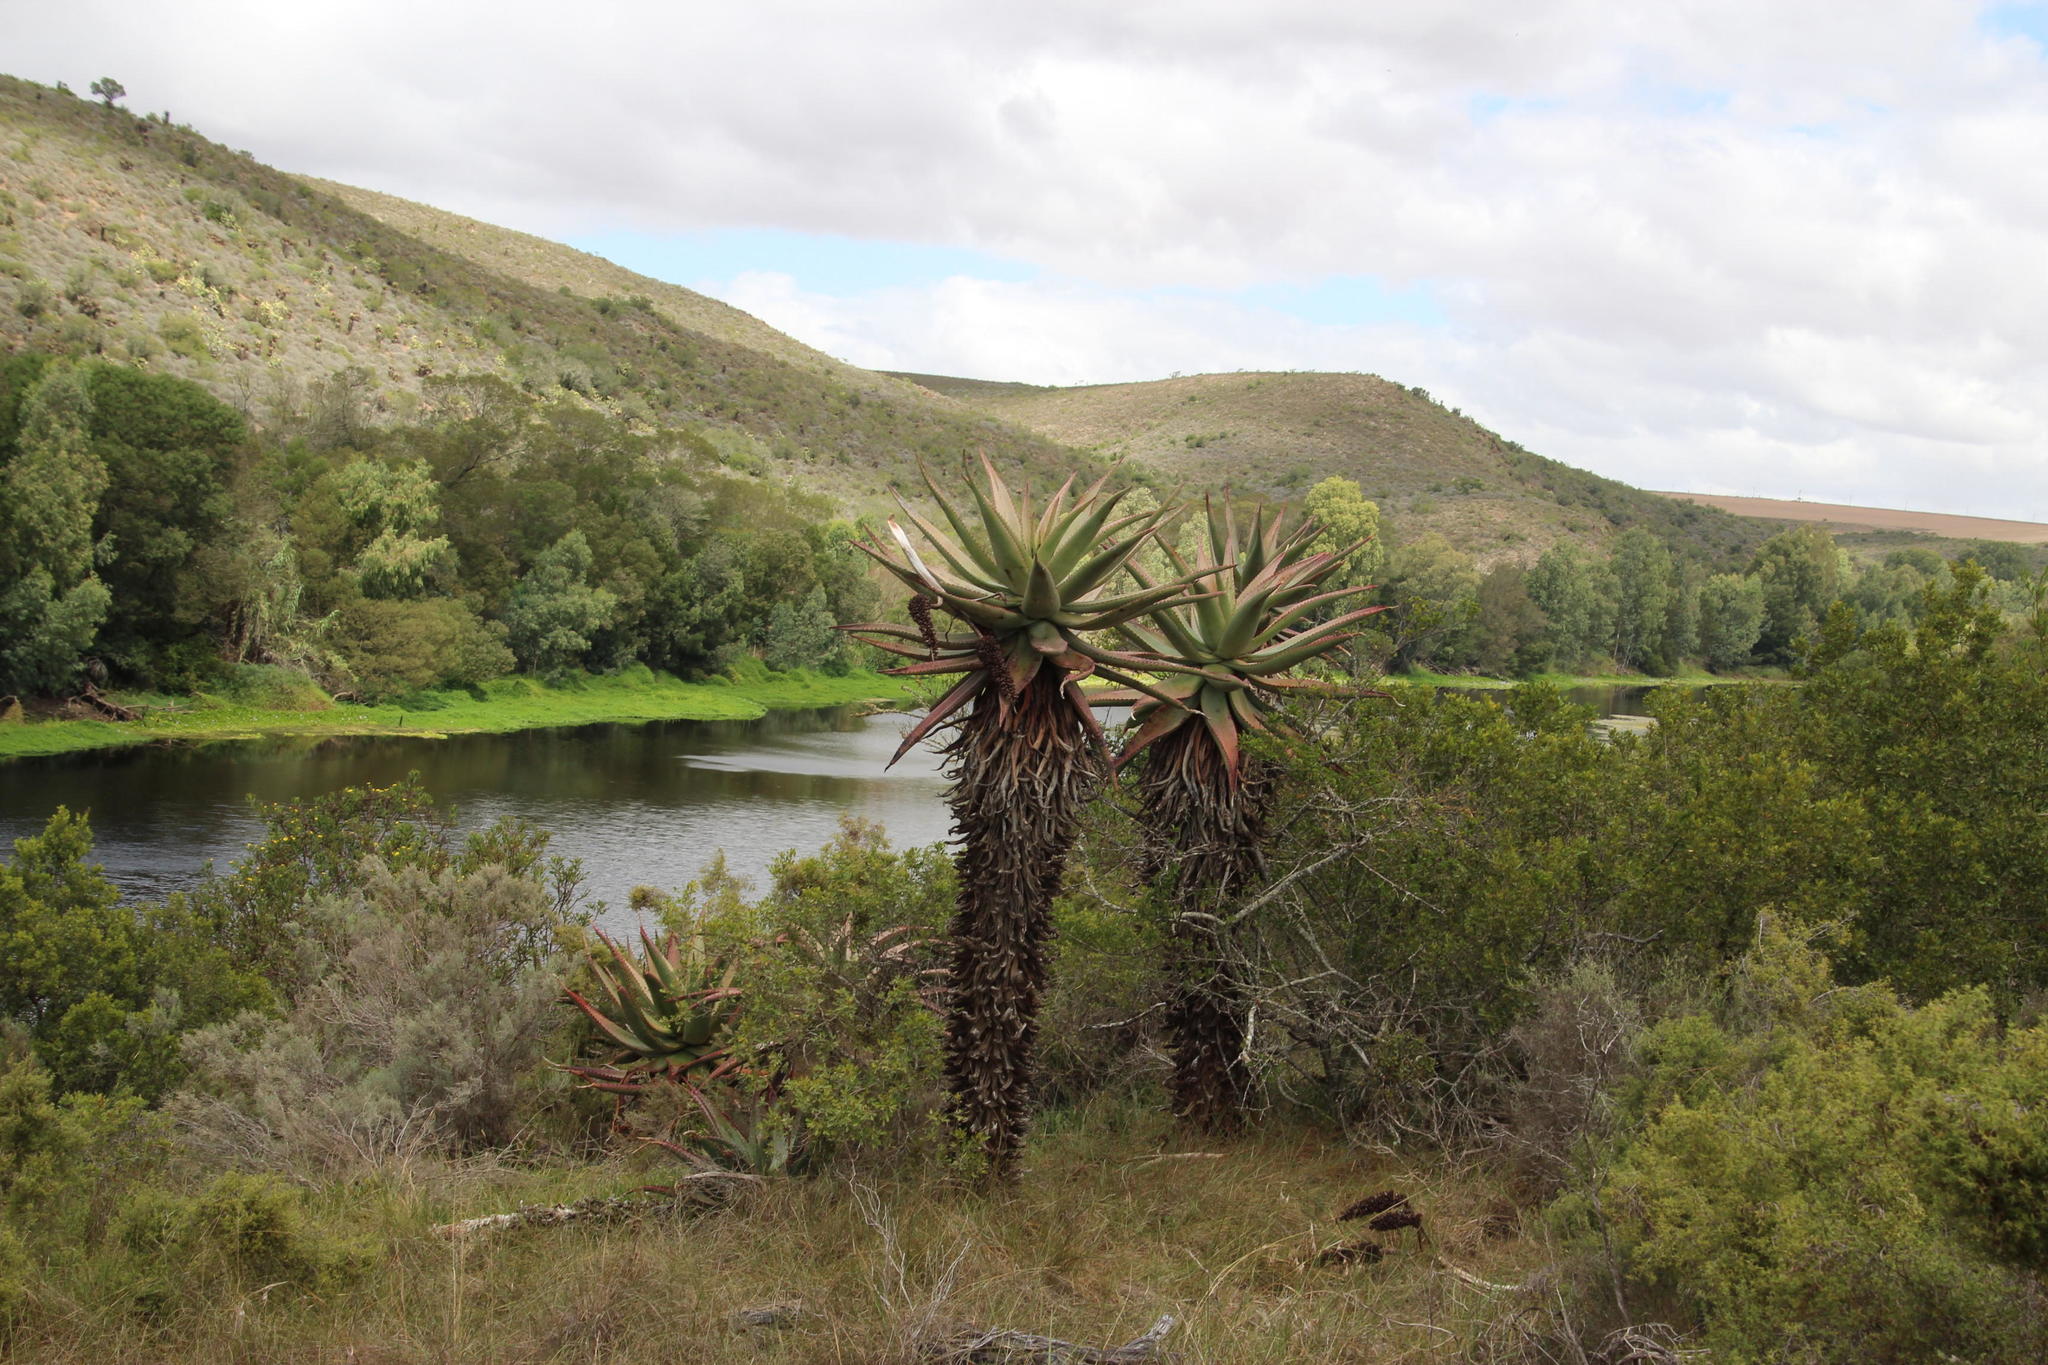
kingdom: Plantae
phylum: Tracheophyta
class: Liliopsida
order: Asparagales
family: Asphodelaceae
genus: Aloe
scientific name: Aloe ferox
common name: Bitter aloe
